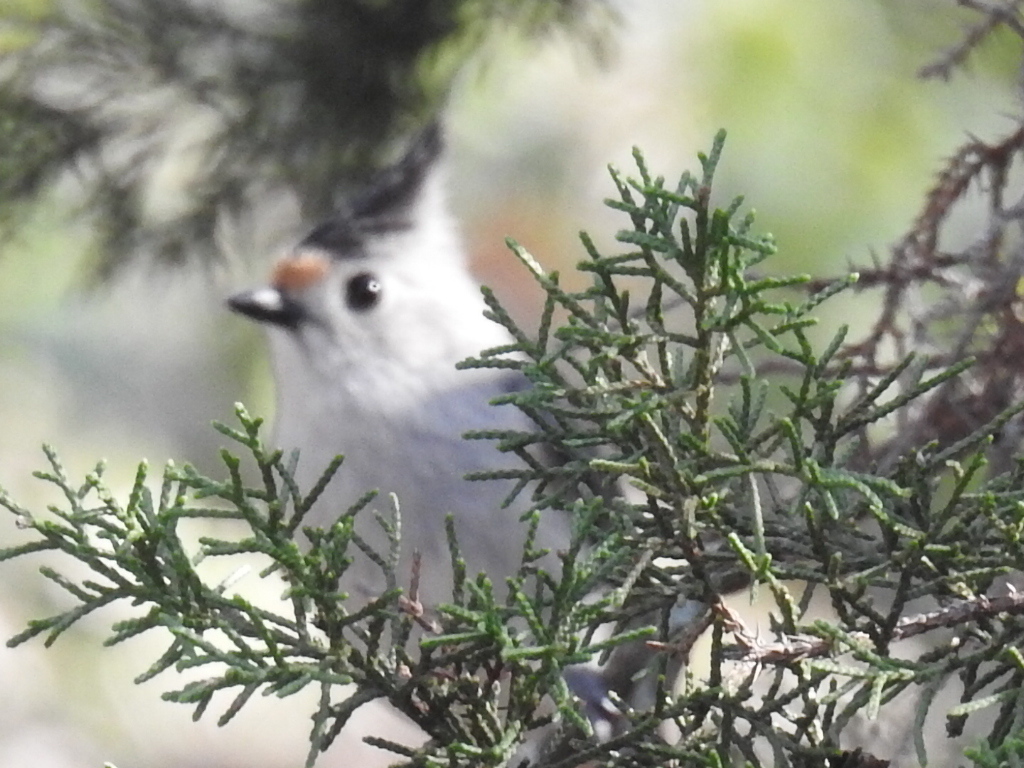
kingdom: Animalia
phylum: Chordata
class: Aves
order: Passeriformes
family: Paridae
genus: Baeolophus
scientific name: Baeolophus atricristatus
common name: Black-crested titmouse
